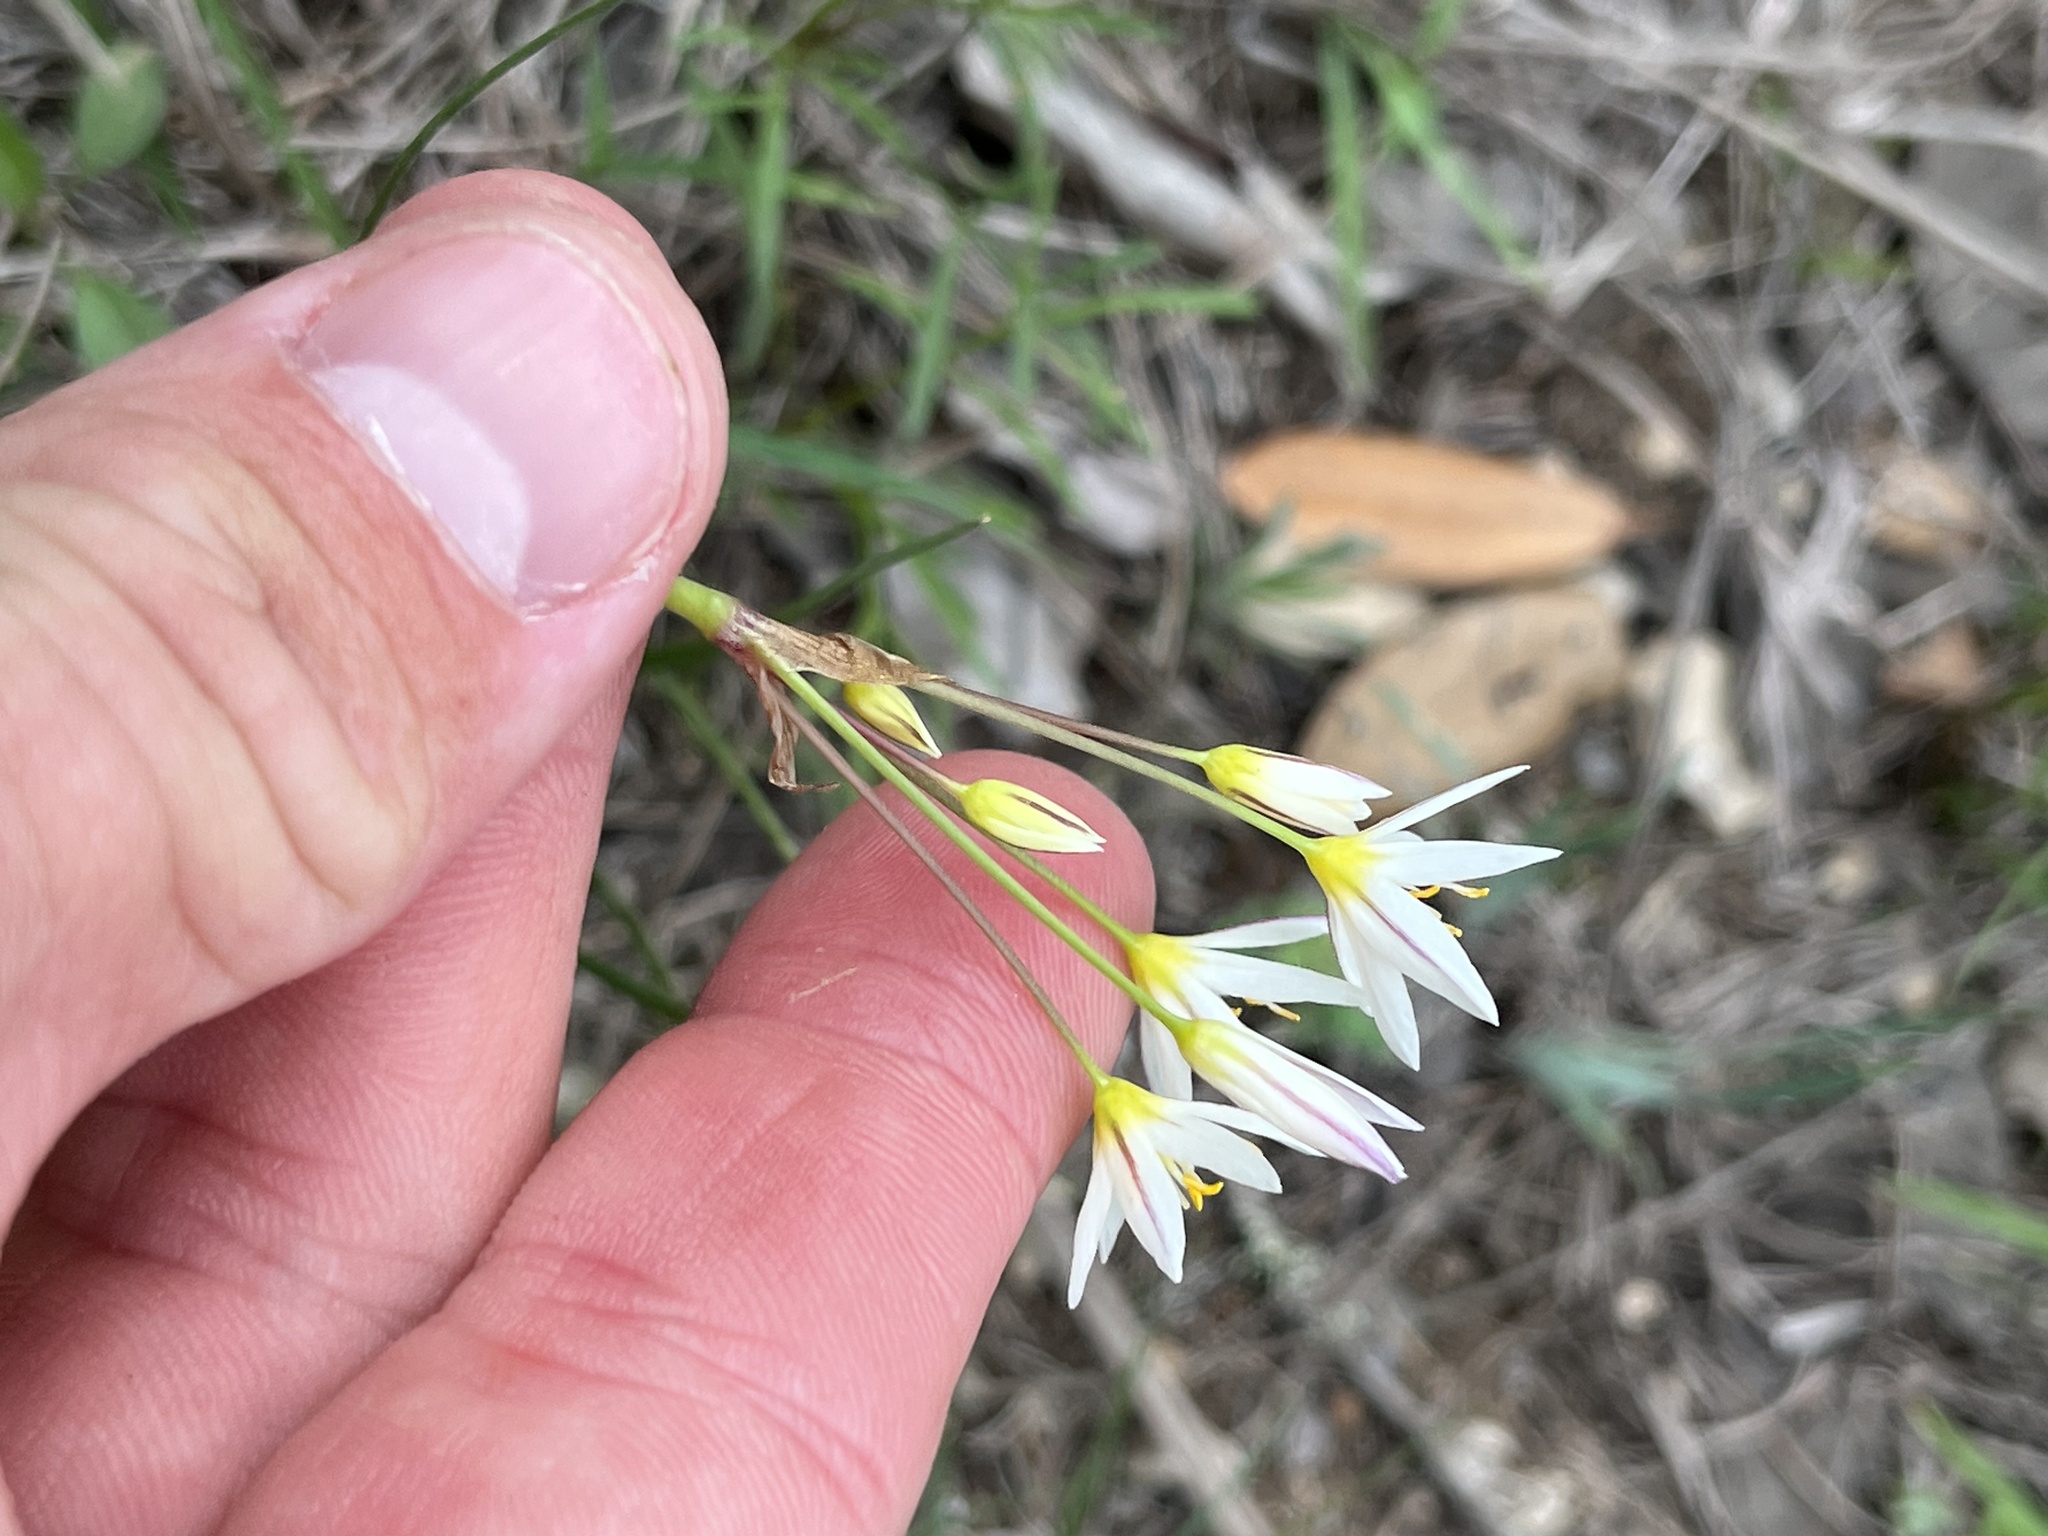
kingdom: Plantae
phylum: Tracheophyta
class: Liliopsida
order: Asparagales
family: Amaryllidaceae
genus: Nothoscordum
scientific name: Nothoscordum bivalve
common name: Crow-poison
